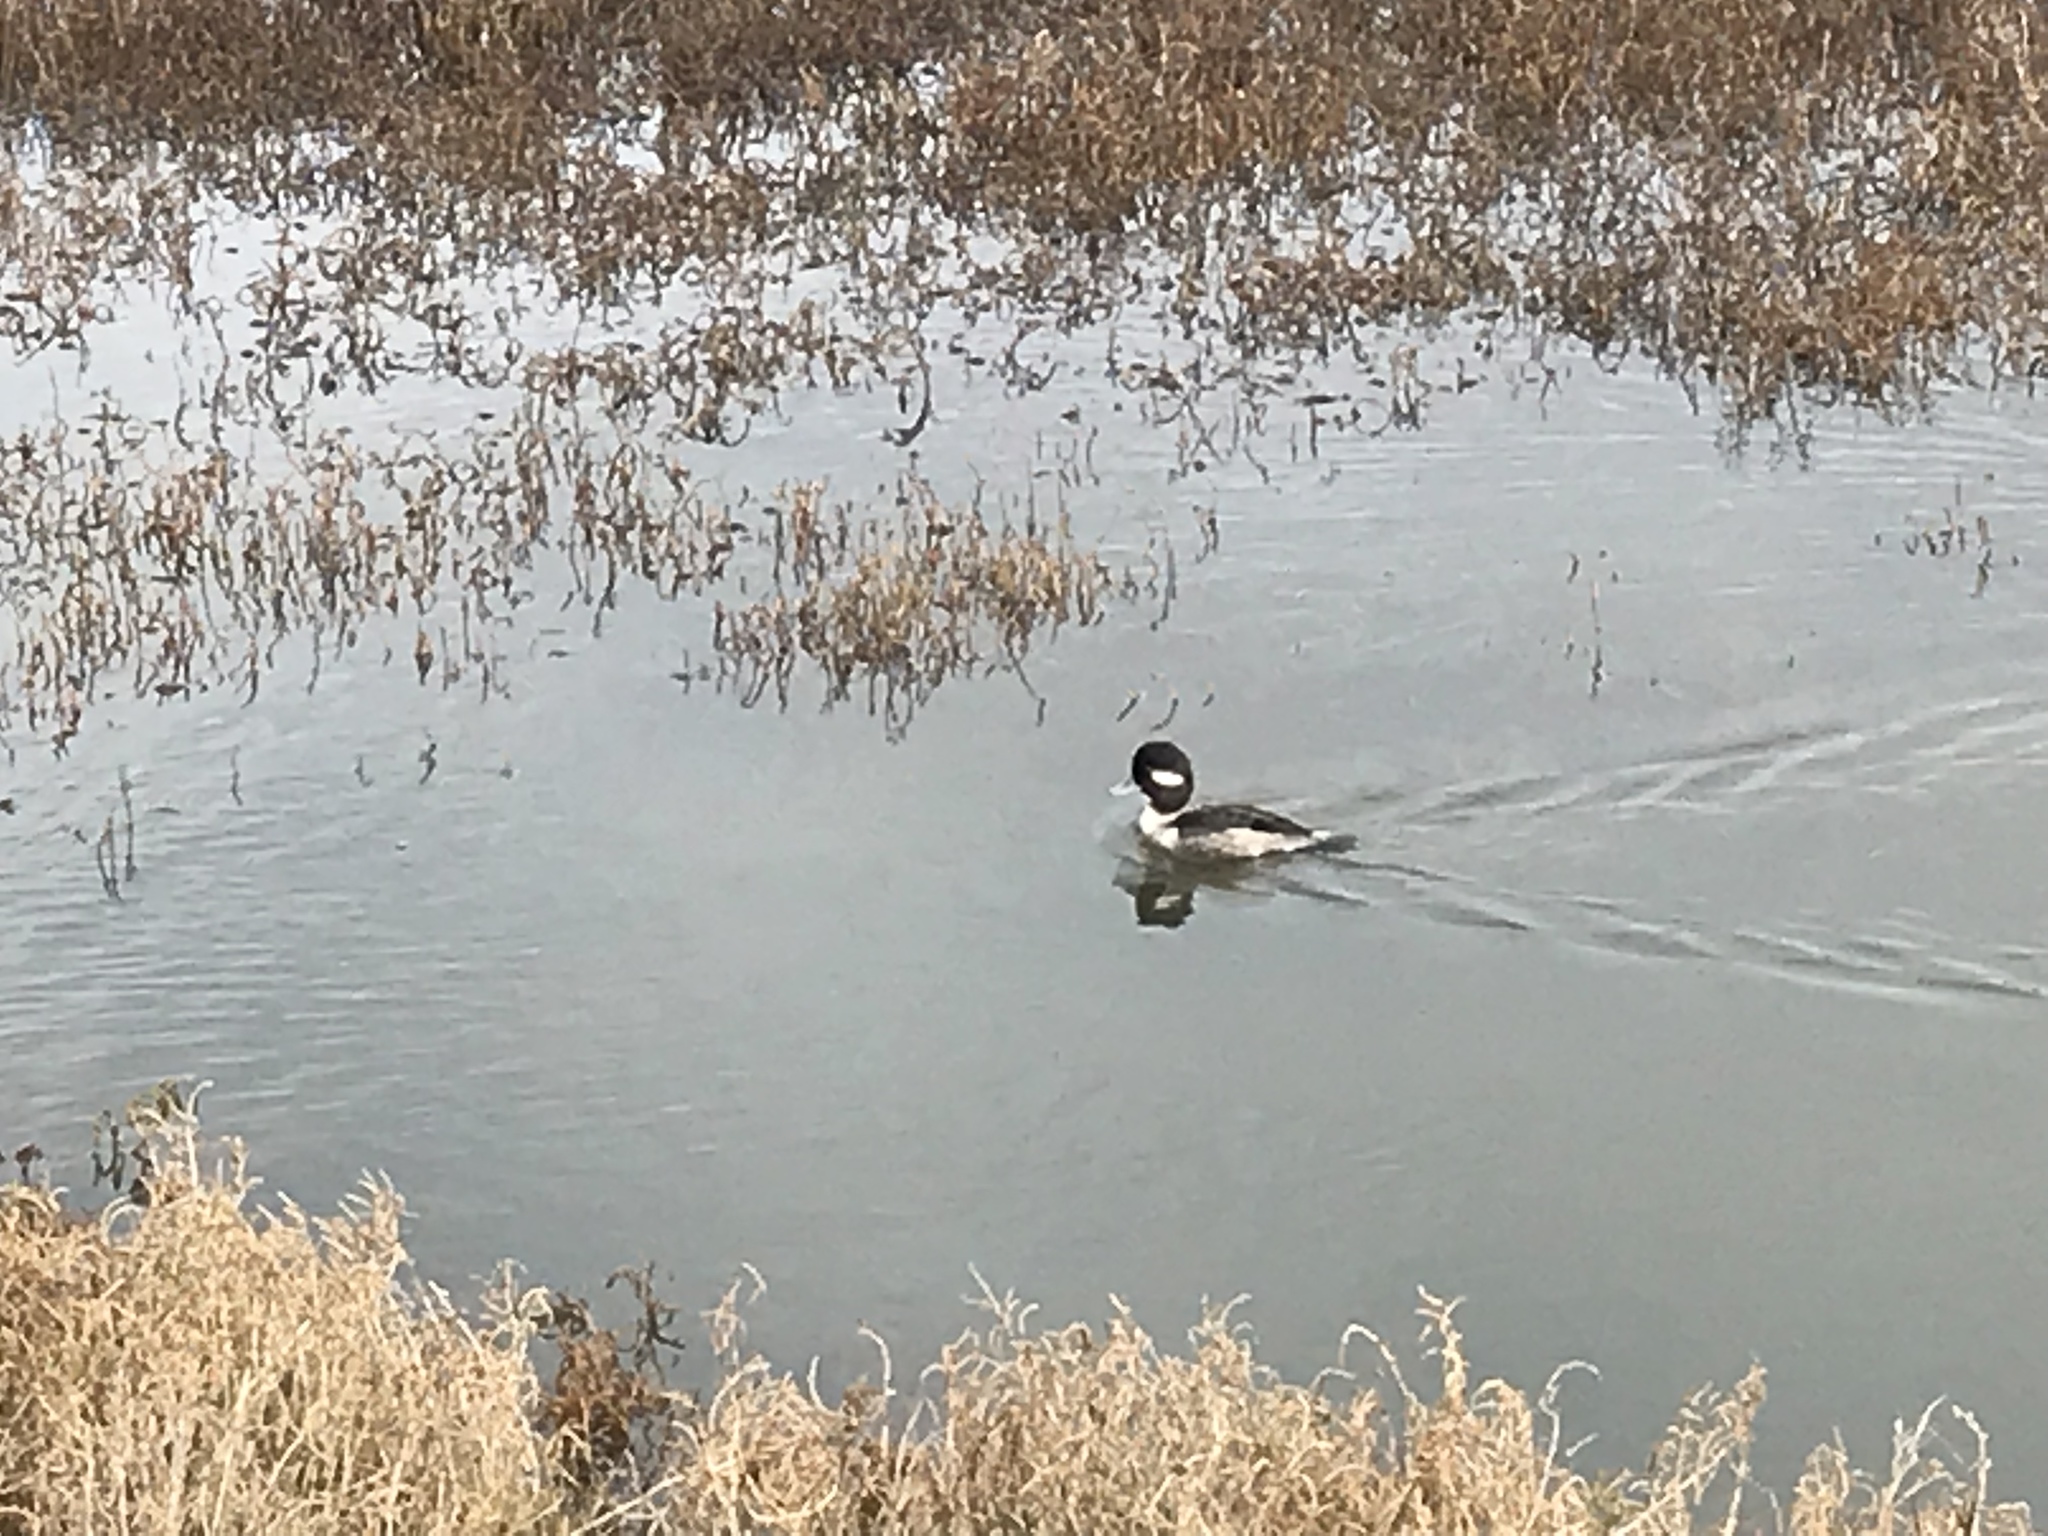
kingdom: Animalia
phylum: Chordata
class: Aves
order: Anseriformes
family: Anatidae
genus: Bucephala
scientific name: Bucephala albeola
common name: Bufflehead
